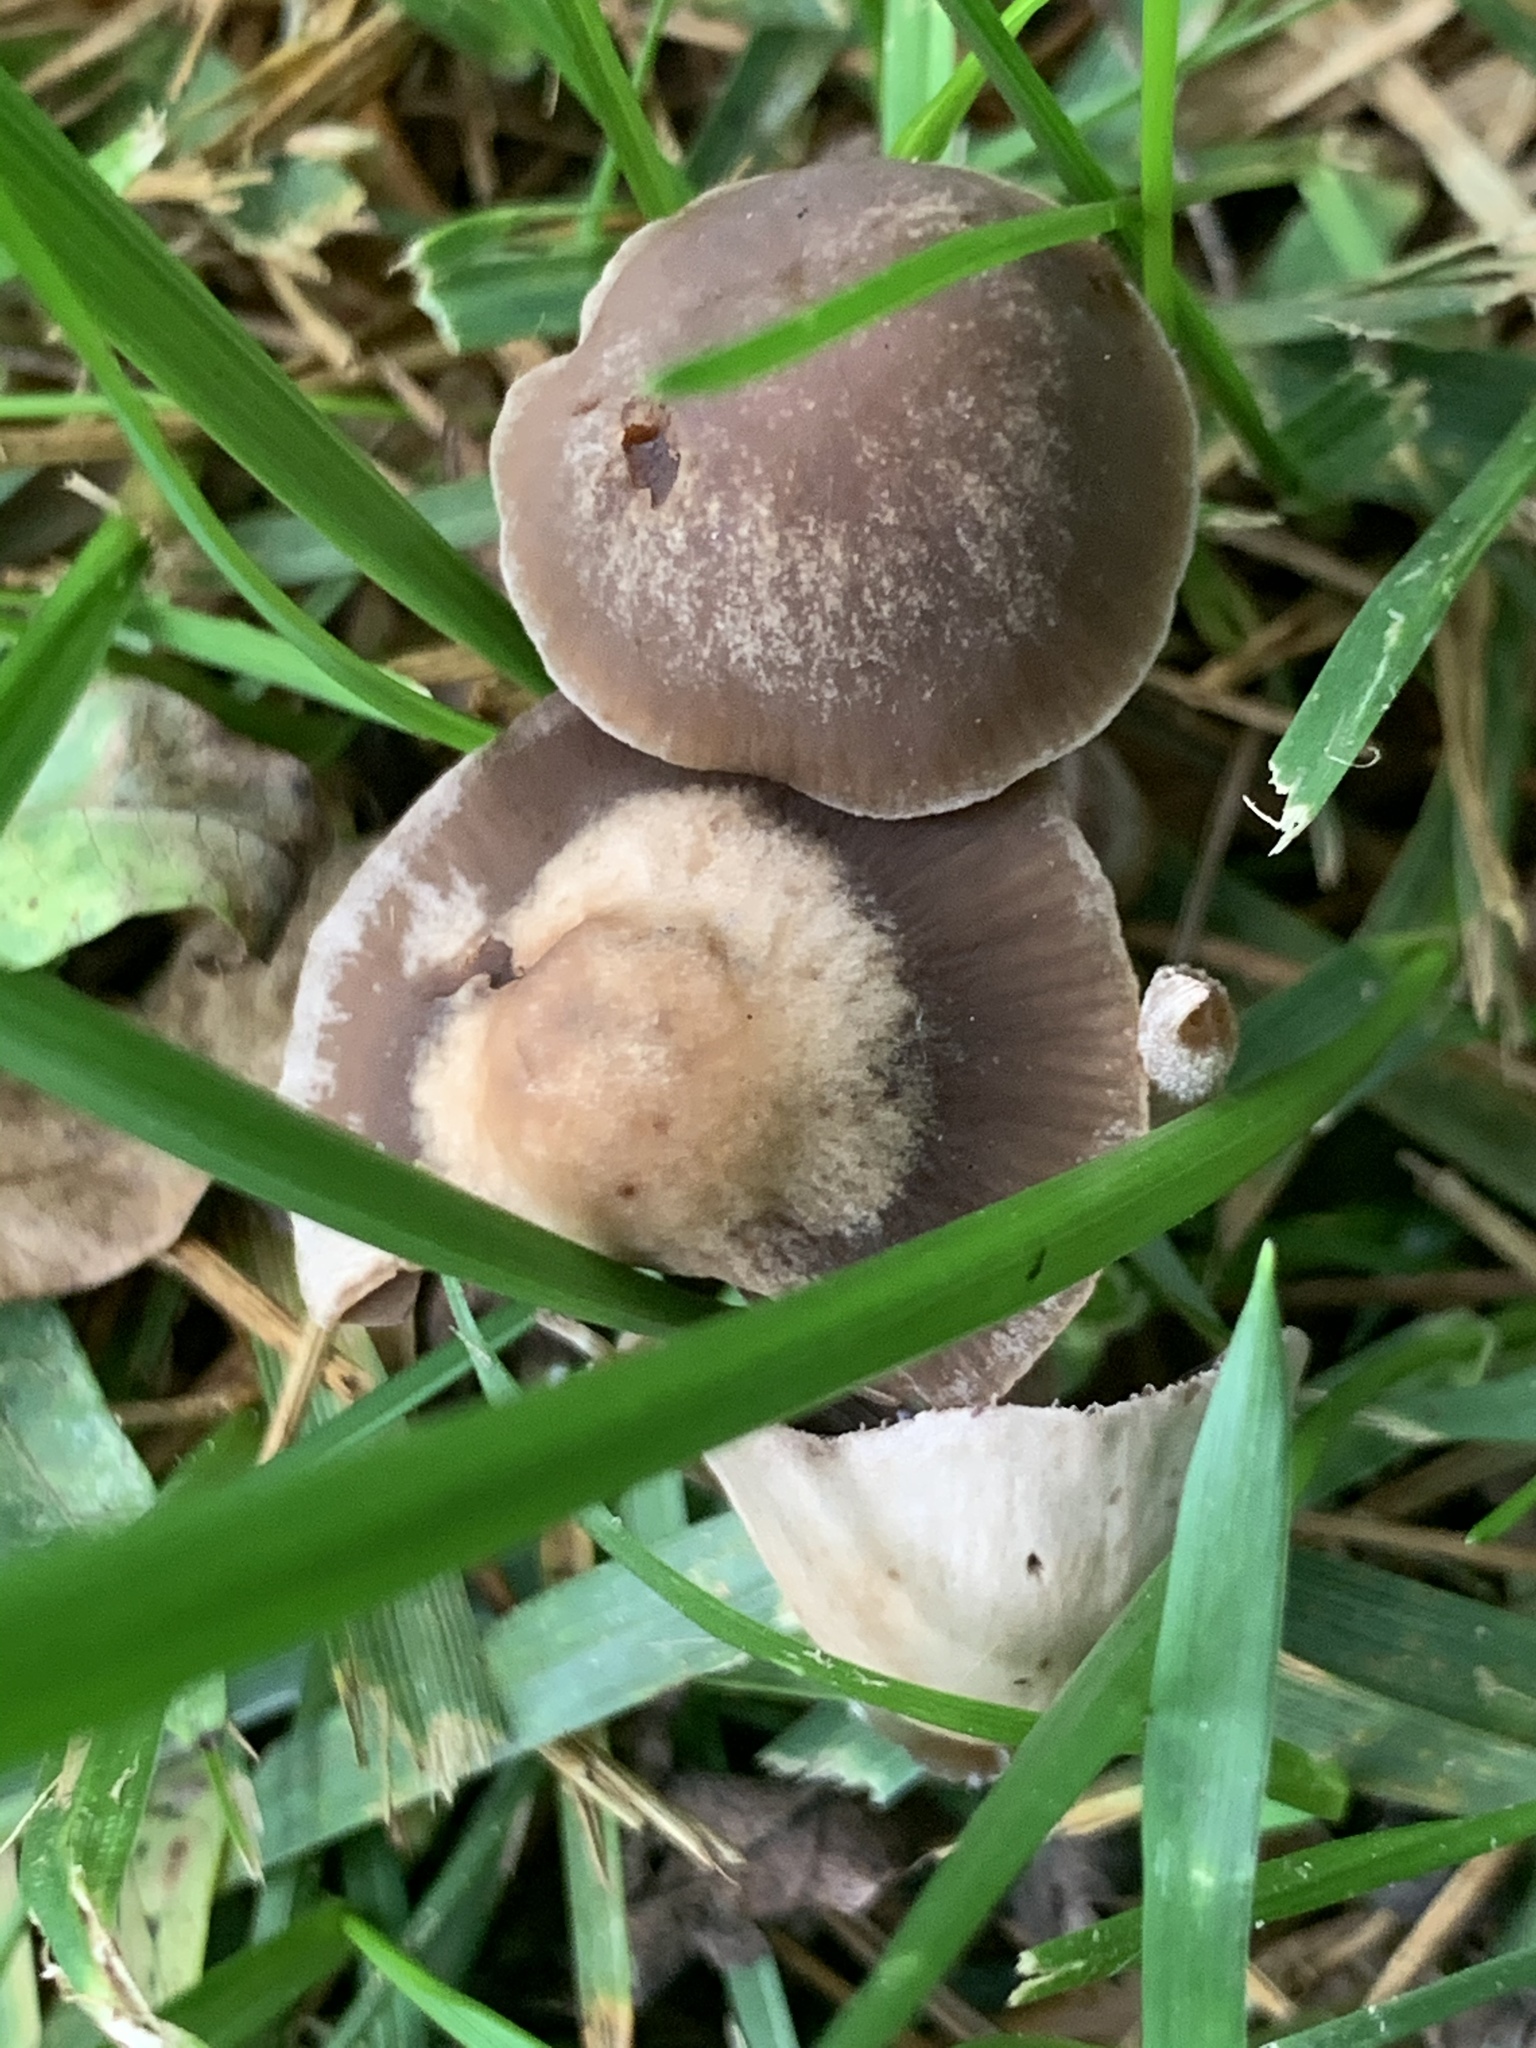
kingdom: Fungi
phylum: Basidiomycota
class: Agaricomycetes
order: Agaricales
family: Bolbitiaceae
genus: Panaeolus
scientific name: Panaeolus cinctulus
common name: Banded mottlegill
